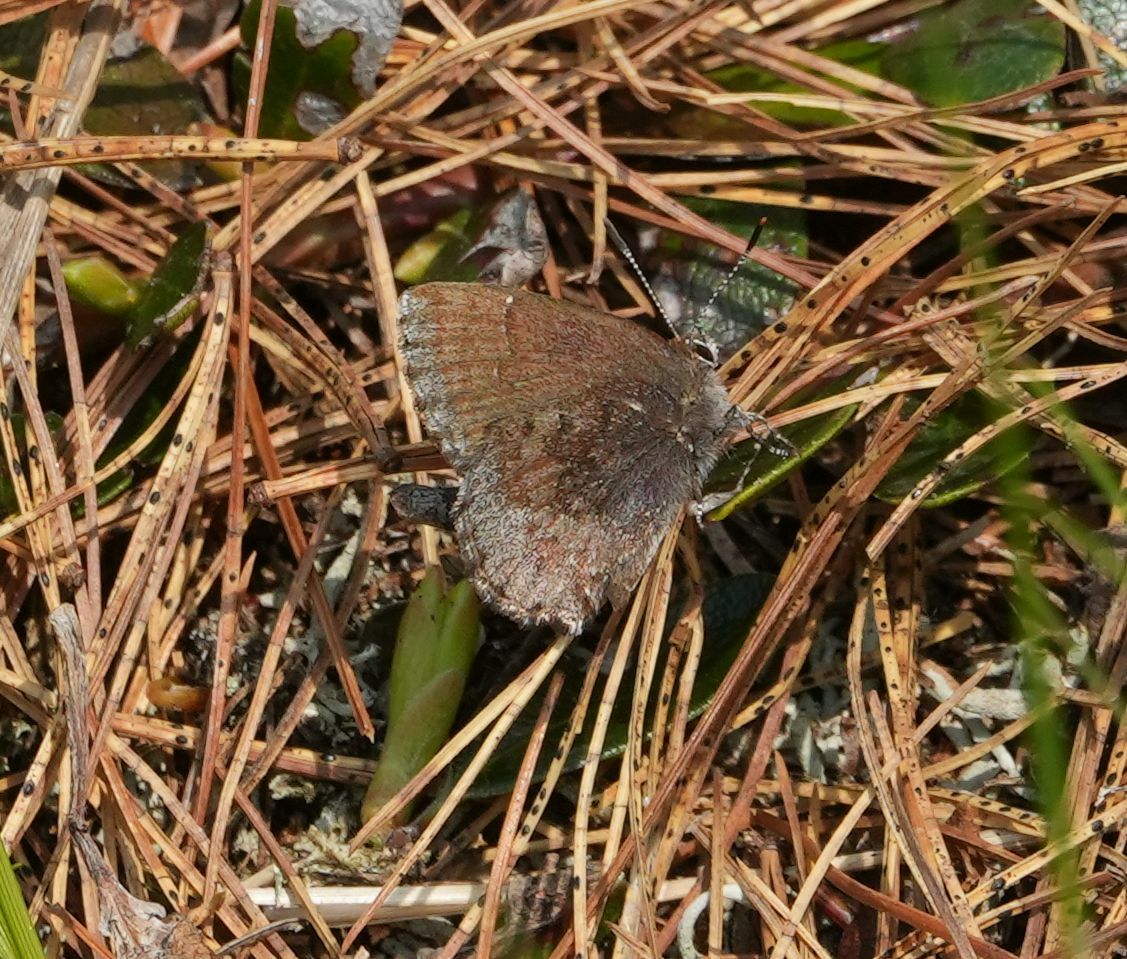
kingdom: Animalia
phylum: Arthropoda
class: Insecta
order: Lepidoptera
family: Lycaenidae
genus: Callophrys
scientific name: Callophrys polios
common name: Hoary elfin
